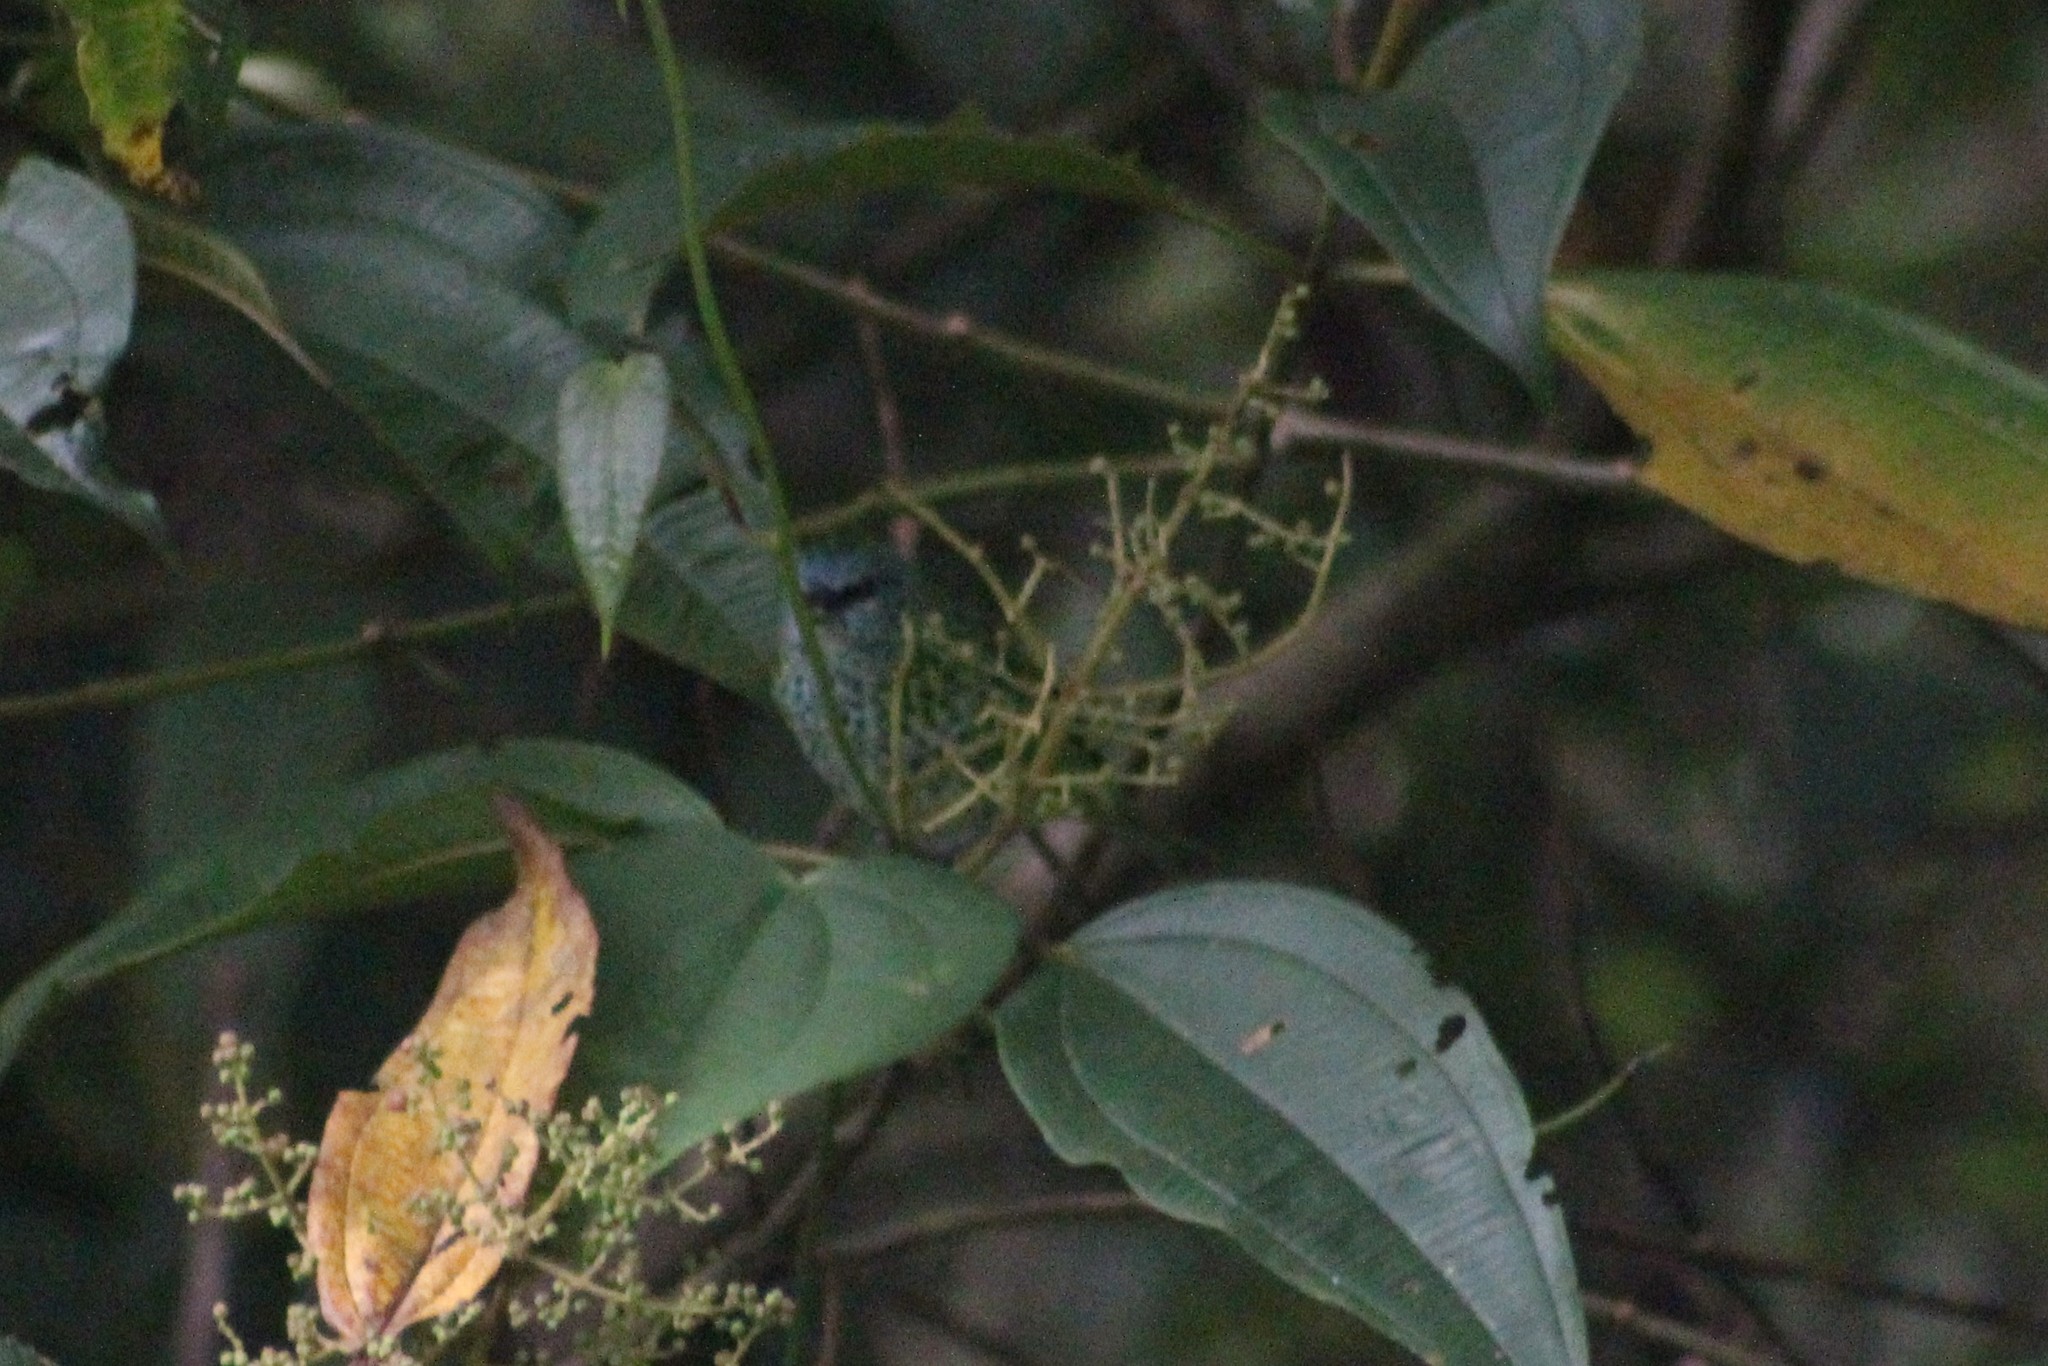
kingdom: Animalia
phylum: Chordata
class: Aves
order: Passeriformes
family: Thraupidae
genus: Ixothraupis
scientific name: Ixothraupis punctata
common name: Spotted tanager
